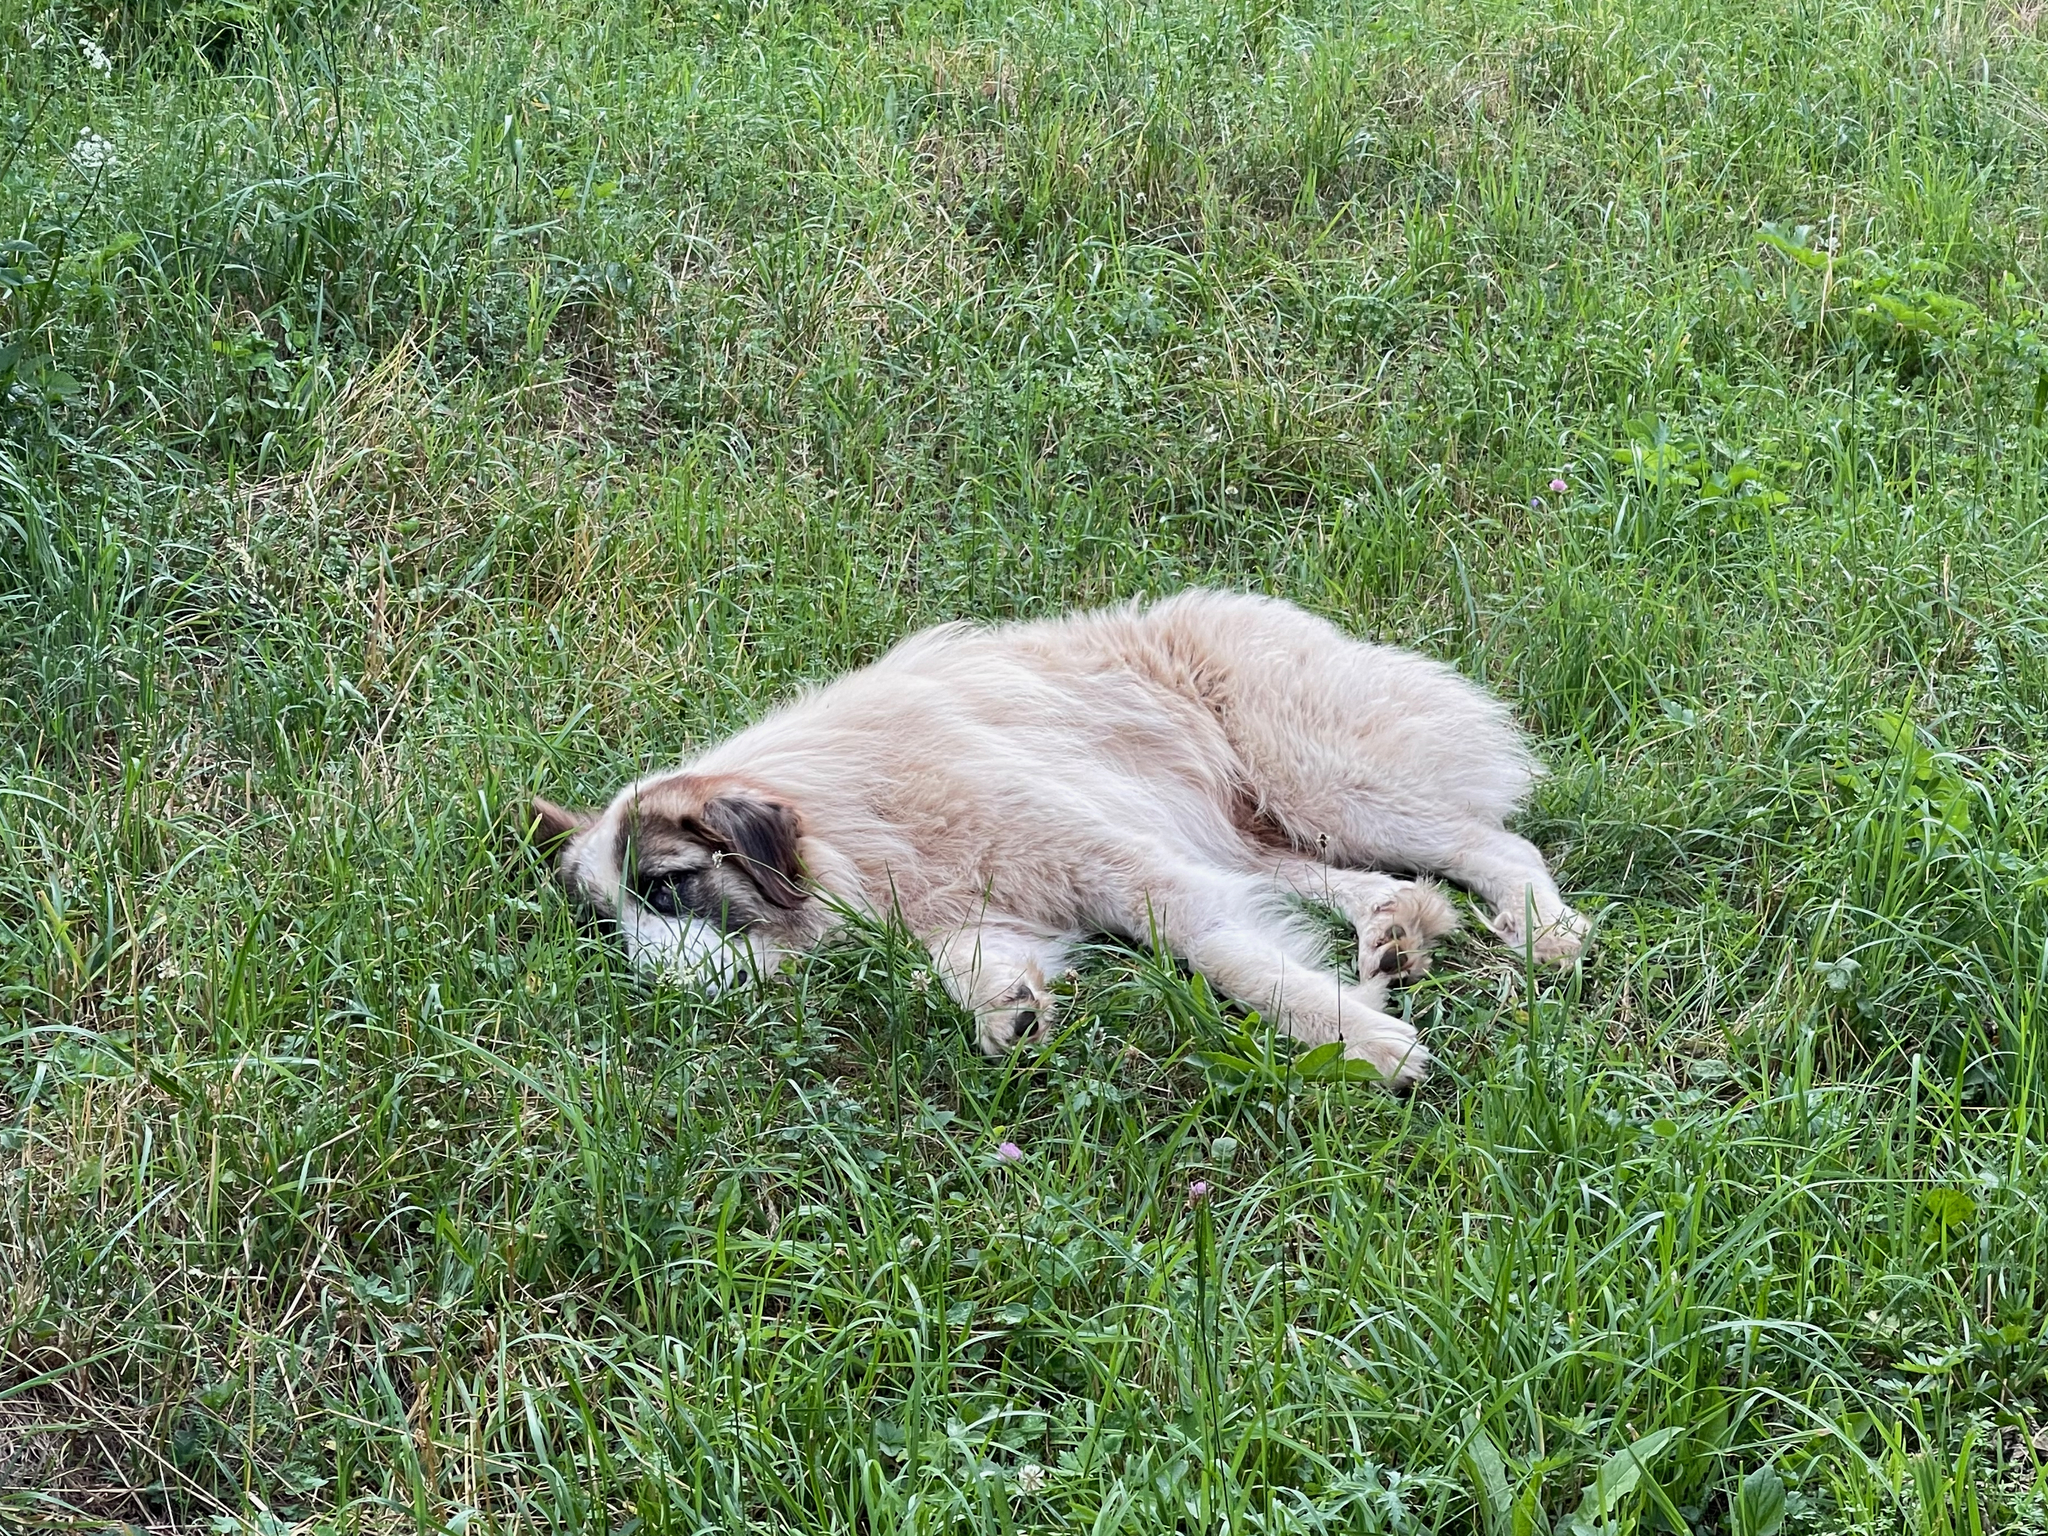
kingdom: Animalia
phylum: Chordata
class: Mammalia
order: Carnivora
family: Canidae
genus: Canis
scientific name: Canis lupus
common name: Gray wolf
